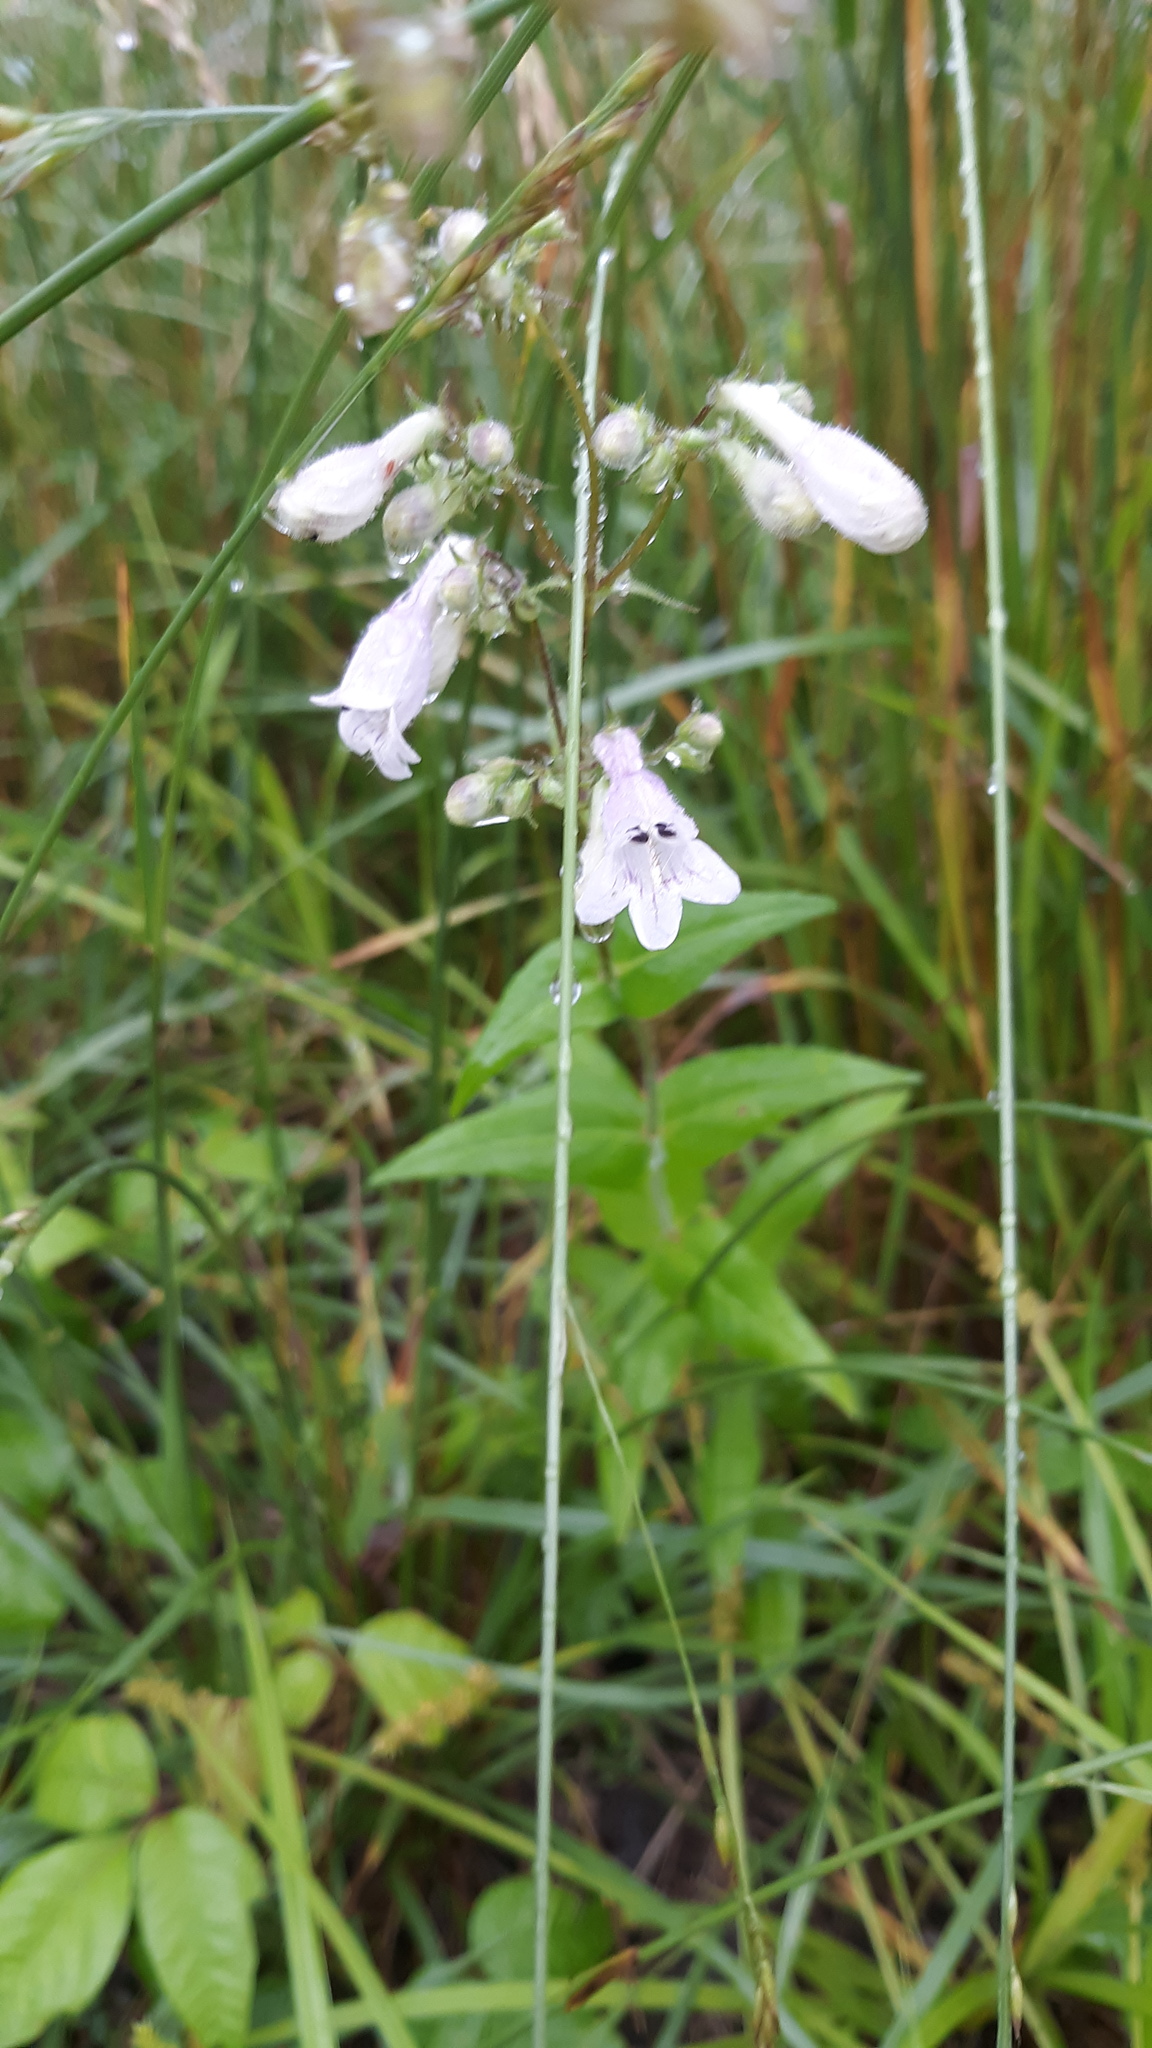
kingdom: Plantae
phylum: Tracheophyta
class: Magnoliopsida
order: Lamiales
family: Plantaginaceae
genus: Penstemon
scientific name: Penstemon digitalis
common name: Foxglove beardtongue
